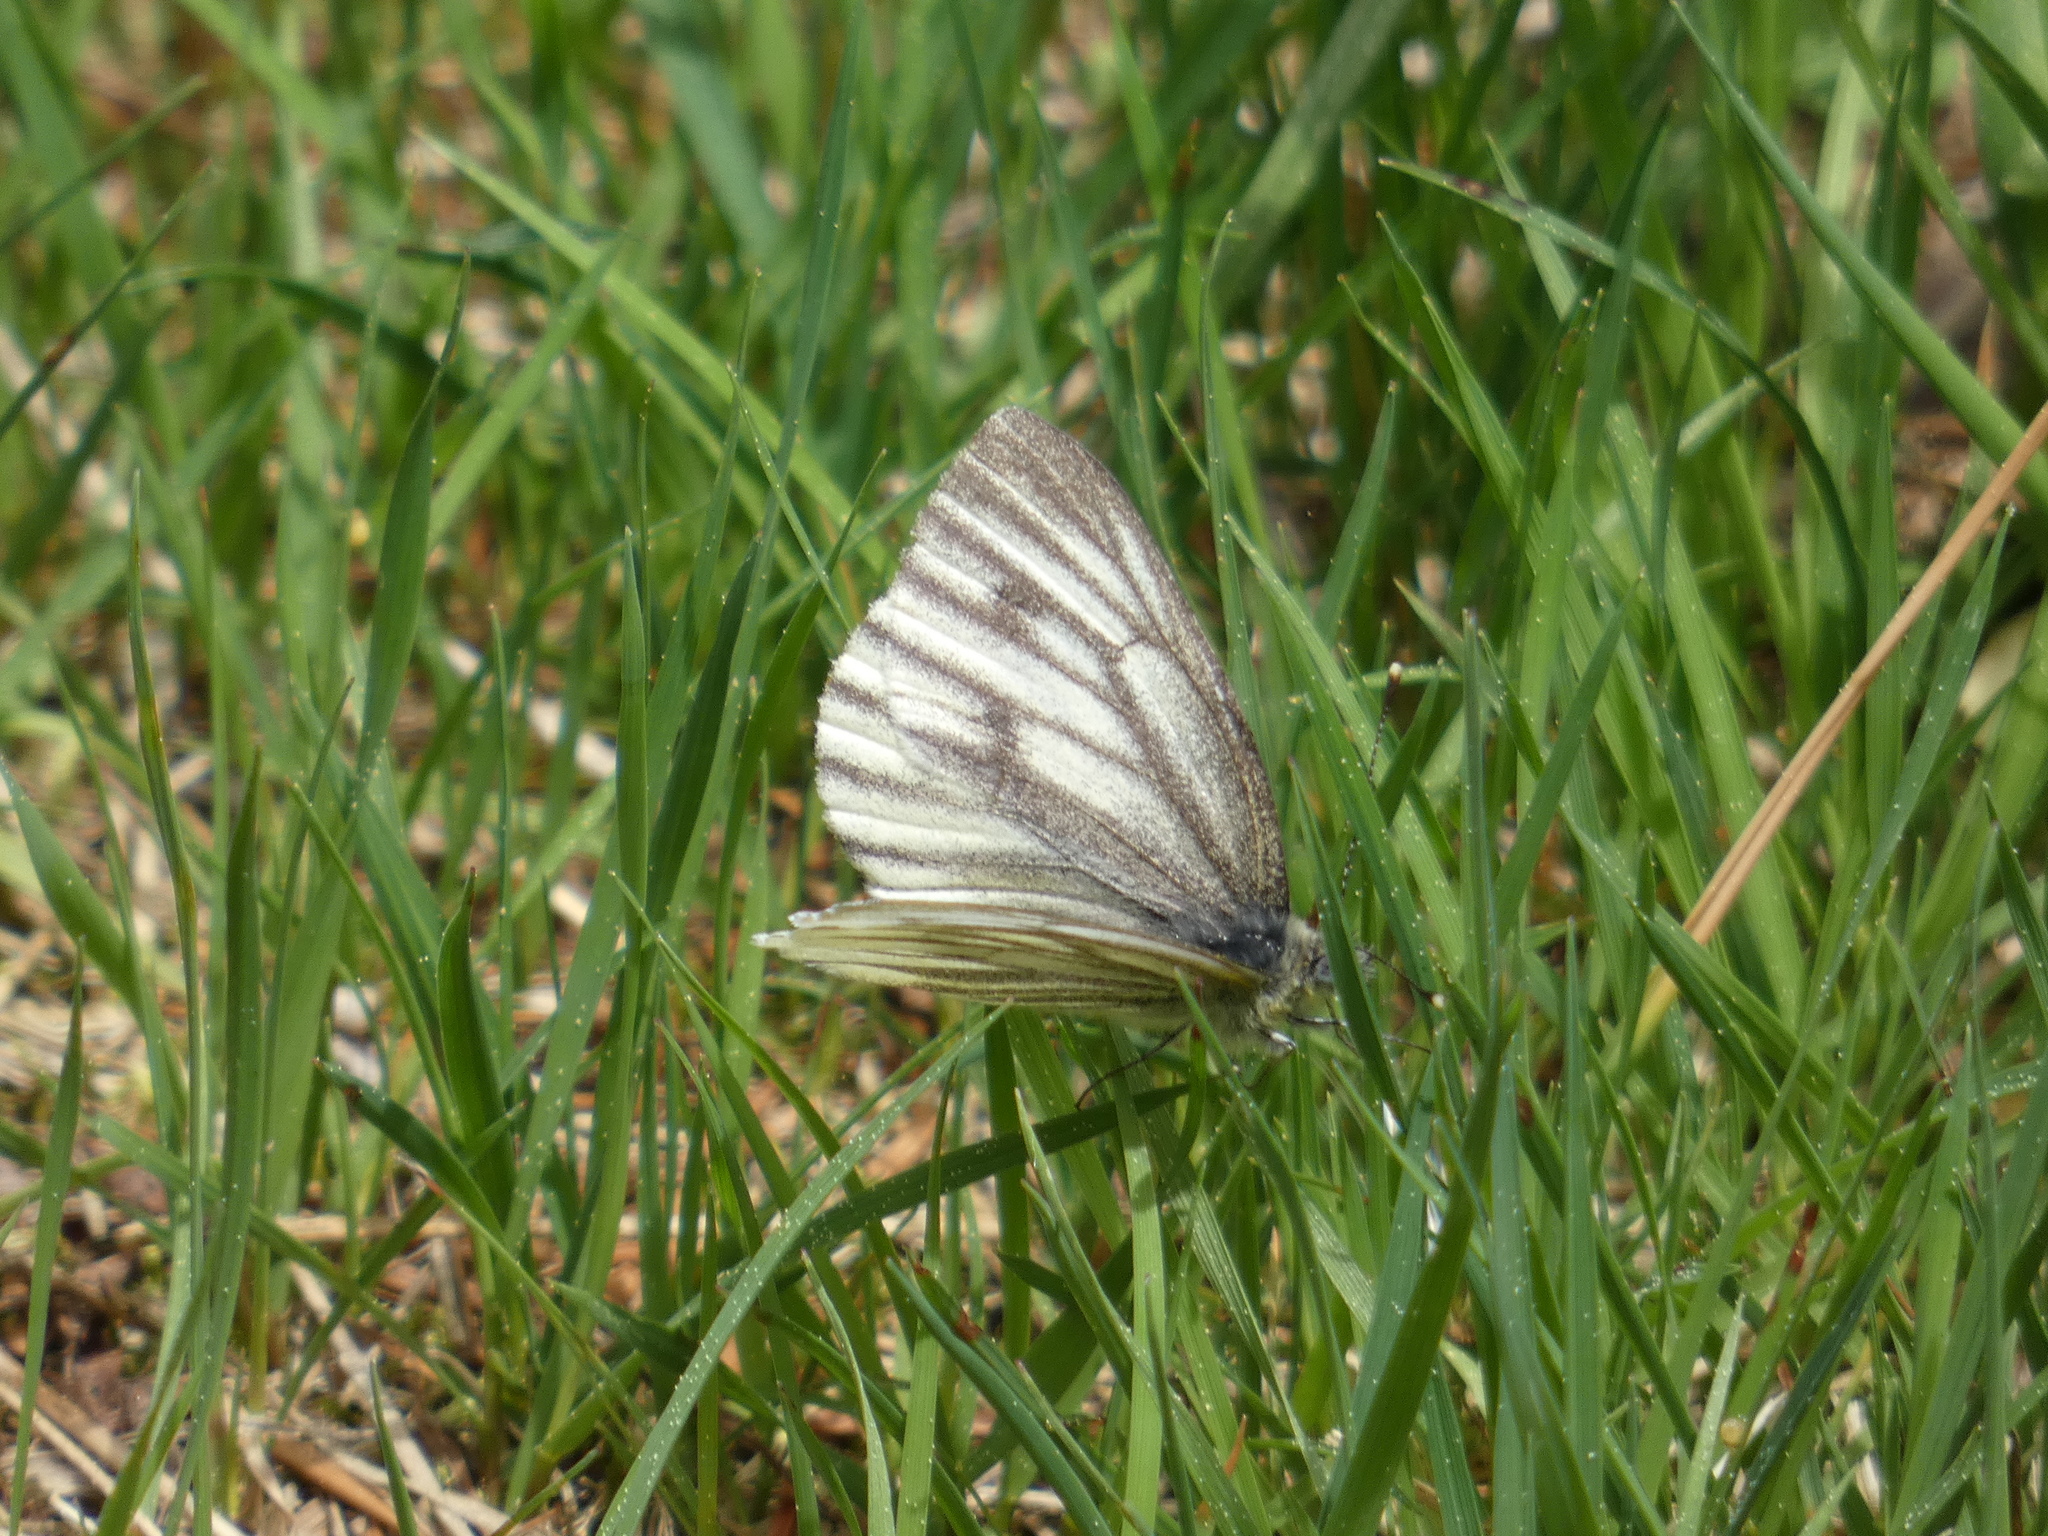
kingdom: Animalia
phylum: Arthropoda
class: Insecta
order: Lepidoptera
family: Pieridae
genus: Pieris
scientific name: Pieris bryoniae
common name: Mountain green-veined white
